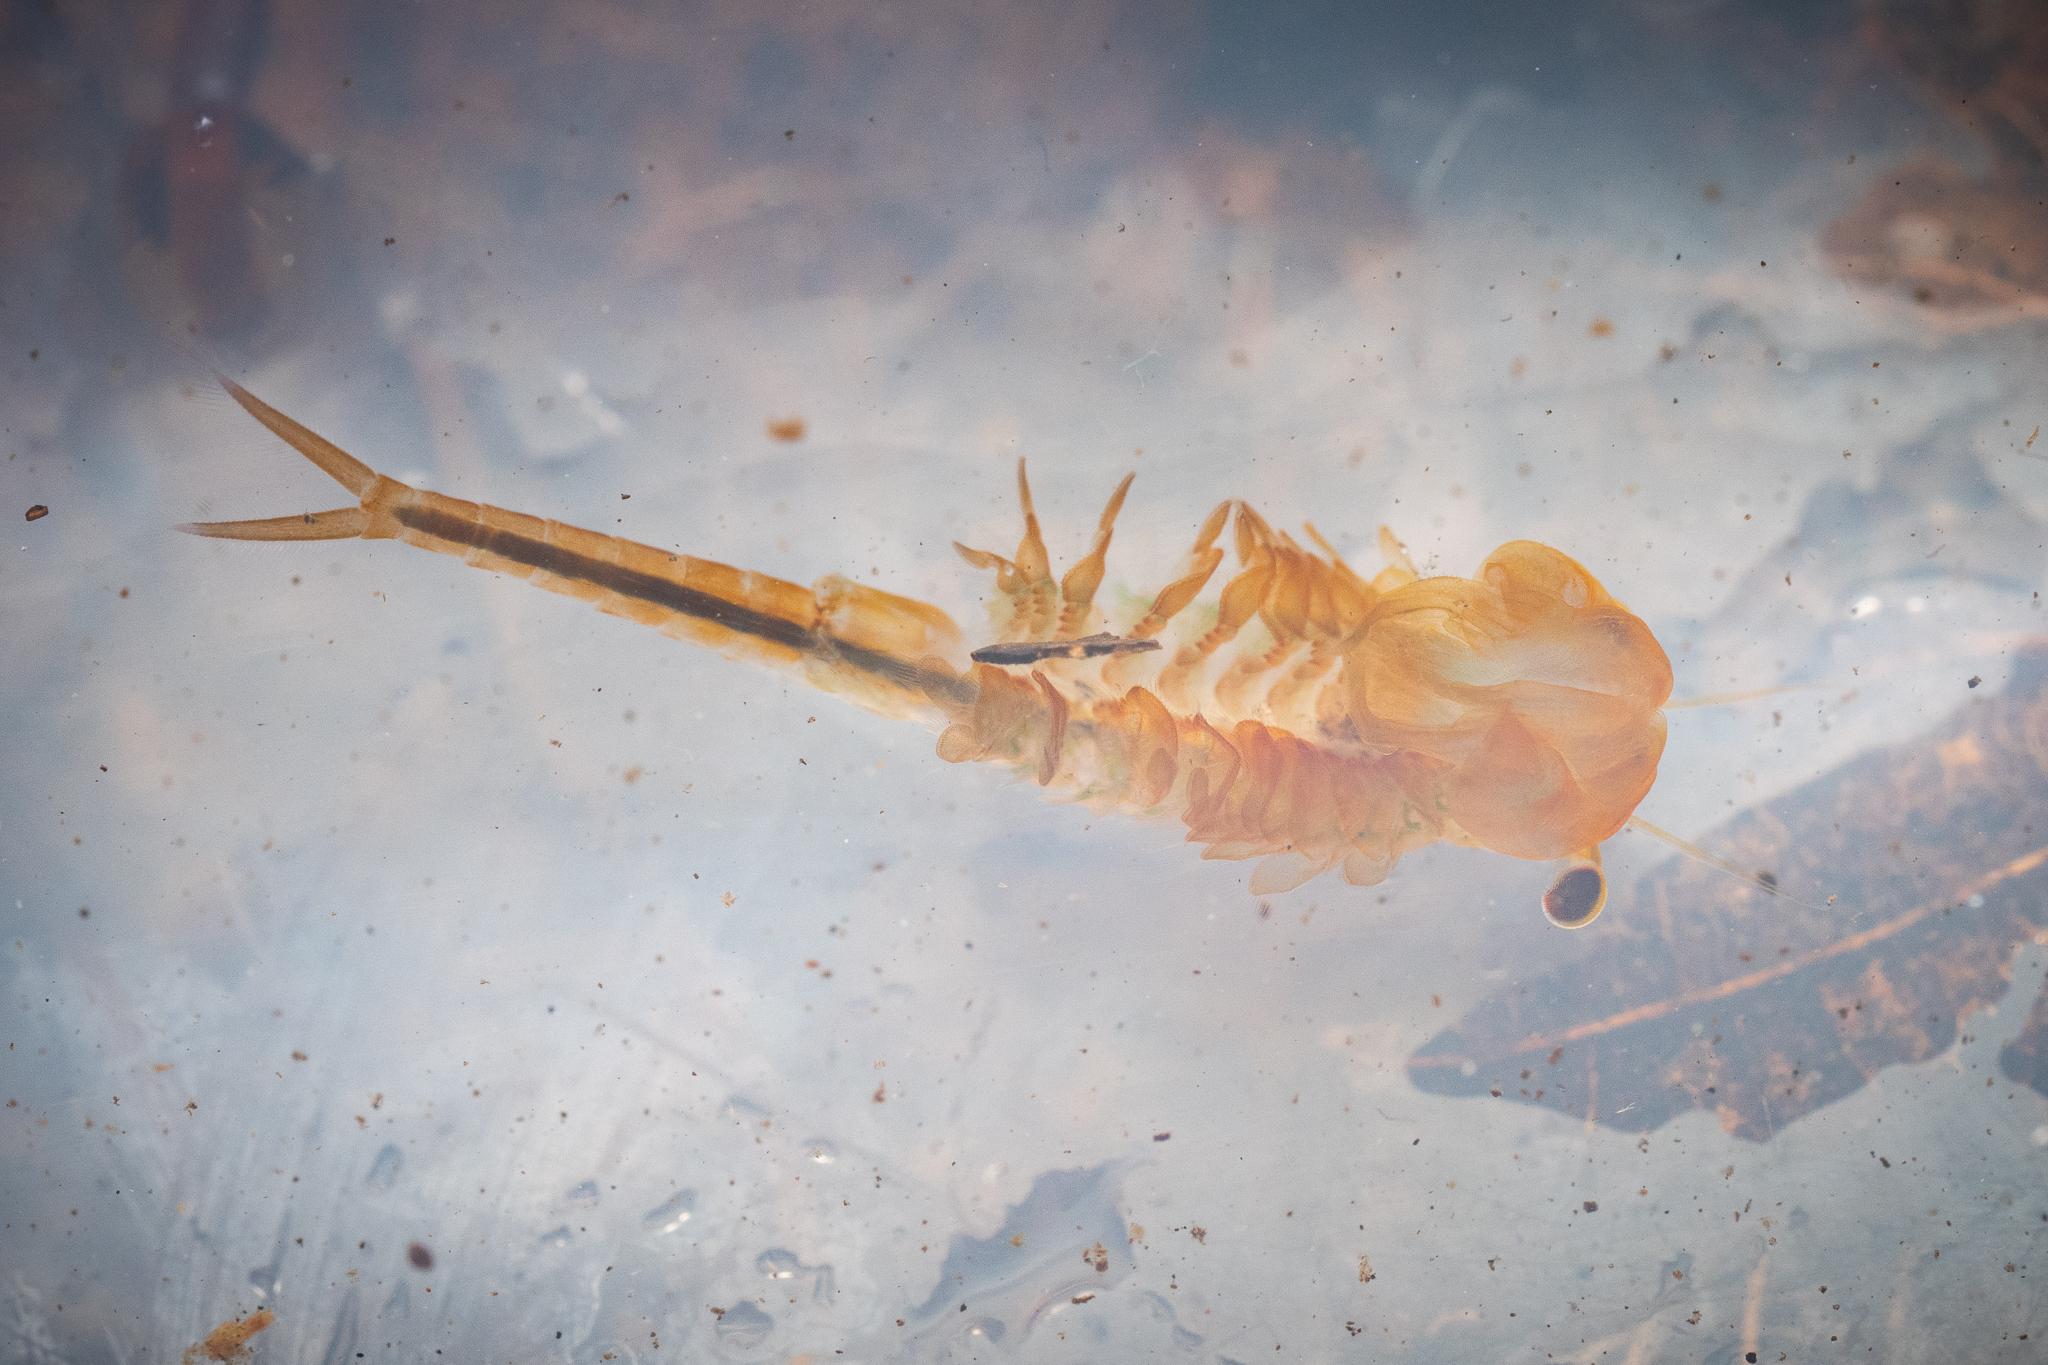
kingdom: Animalia
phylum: Arthropoda
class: Branchiopoda
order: Anostraca
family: Chirocephalidae
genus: Eubranchipus
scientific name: Eubranchipus grubii
